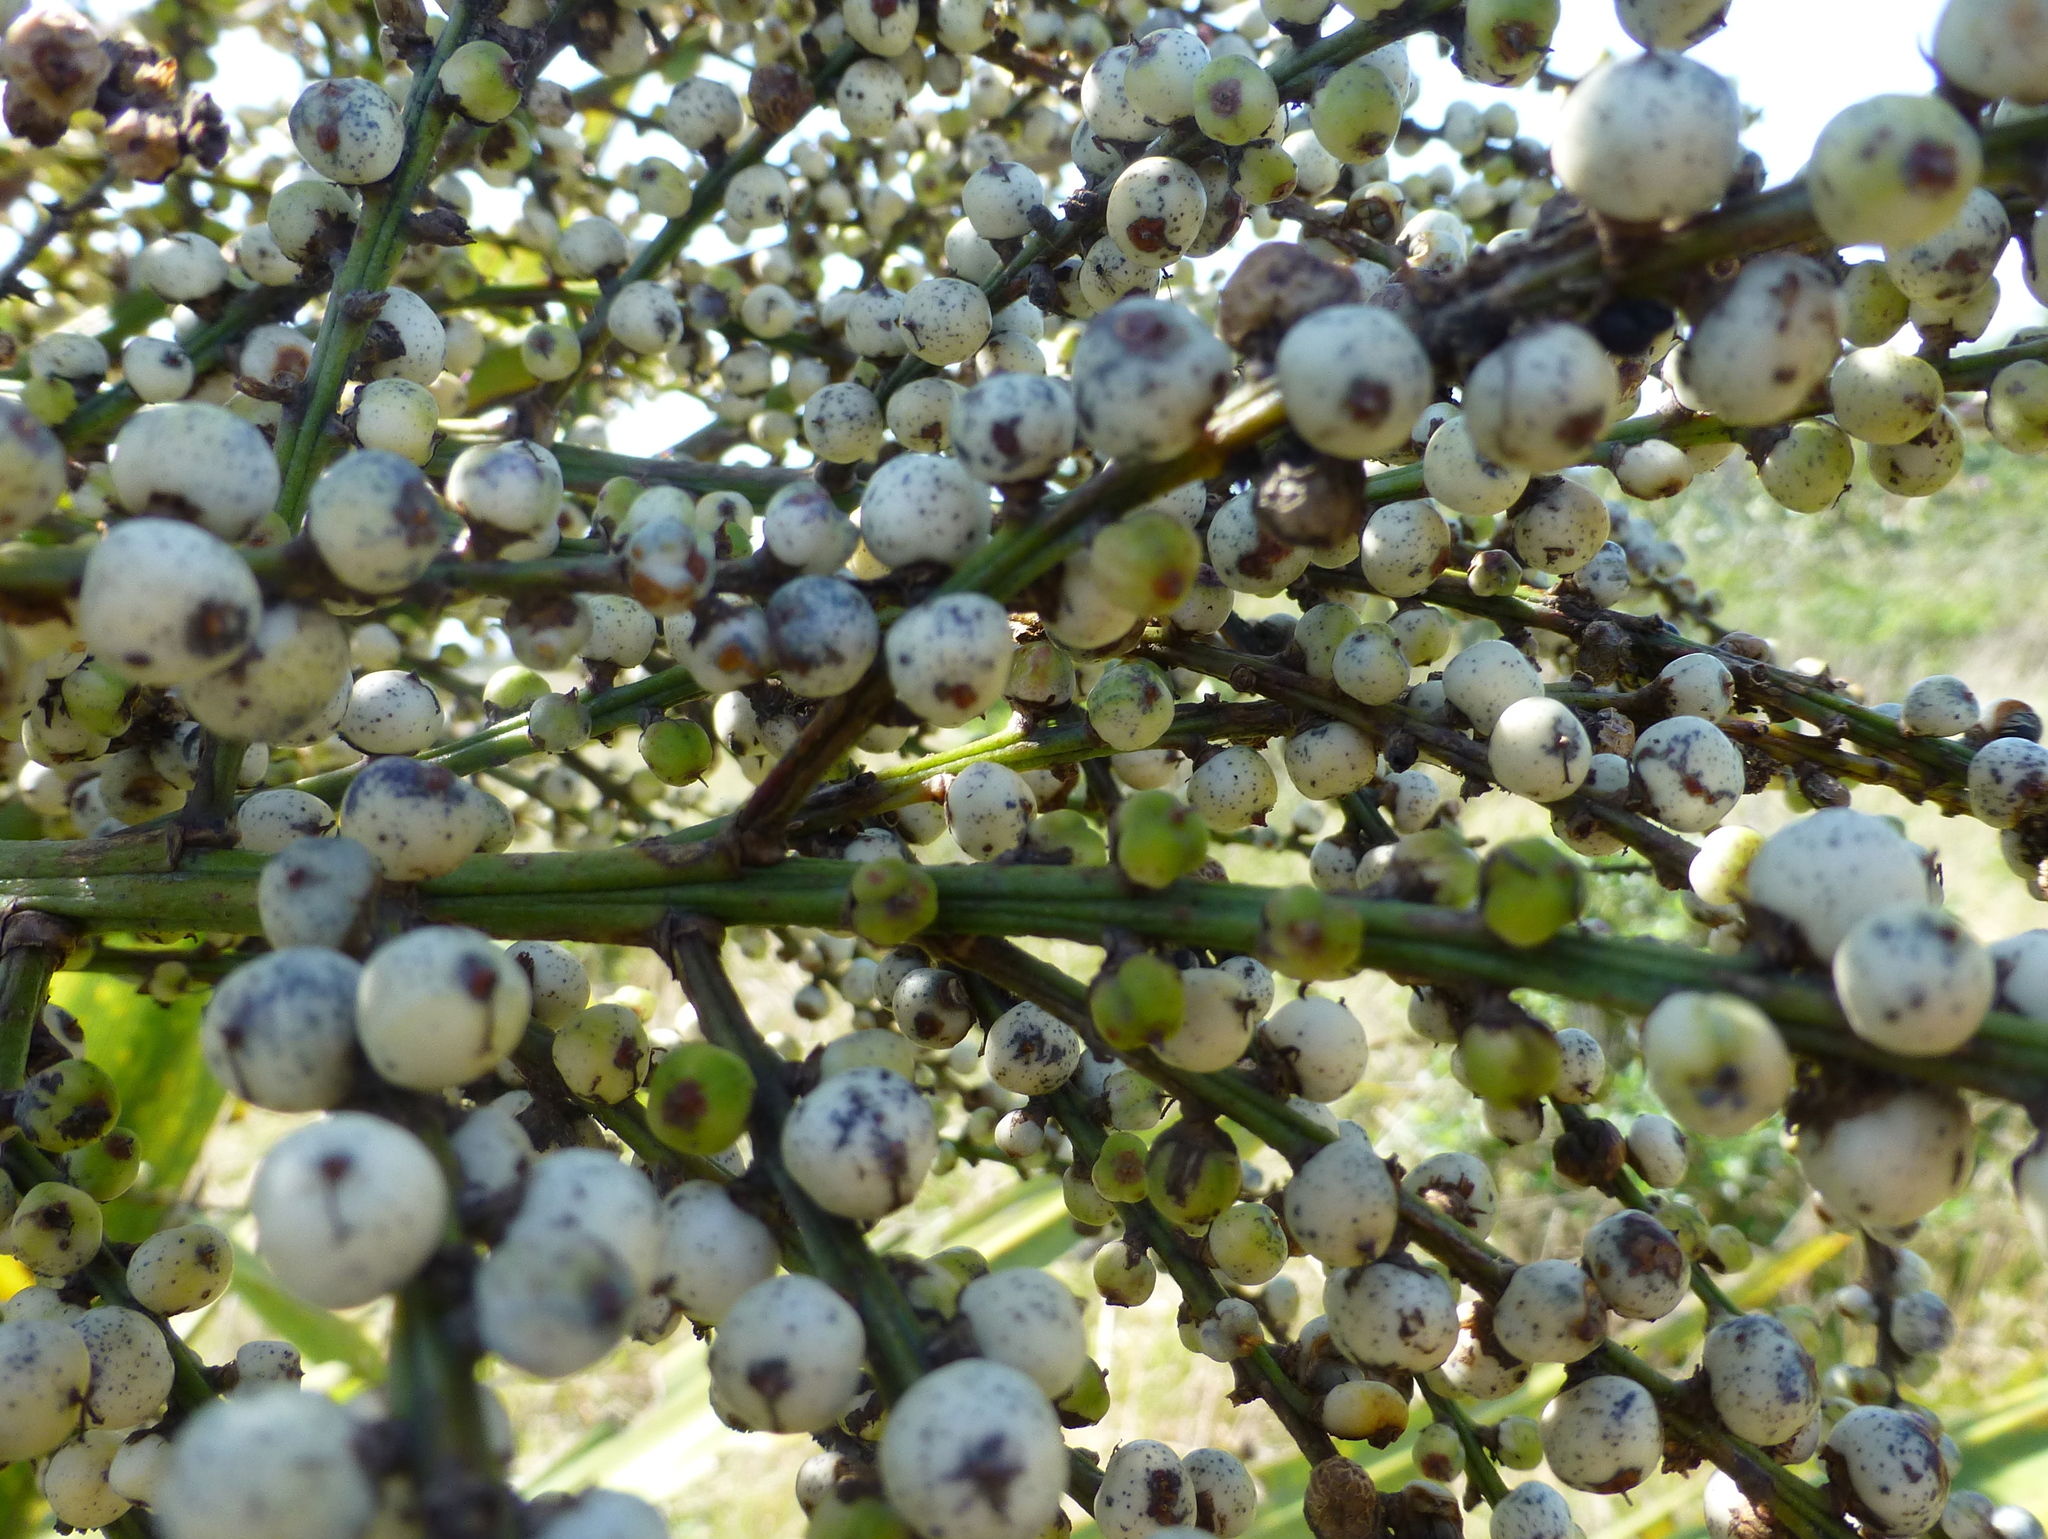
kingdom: Plantae
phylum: Tracheophyta
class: Liliopsida
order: Asparagales
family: Asparagaceae
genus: Cordyline
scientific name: Cordyline australis
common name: Cabbage-palm
